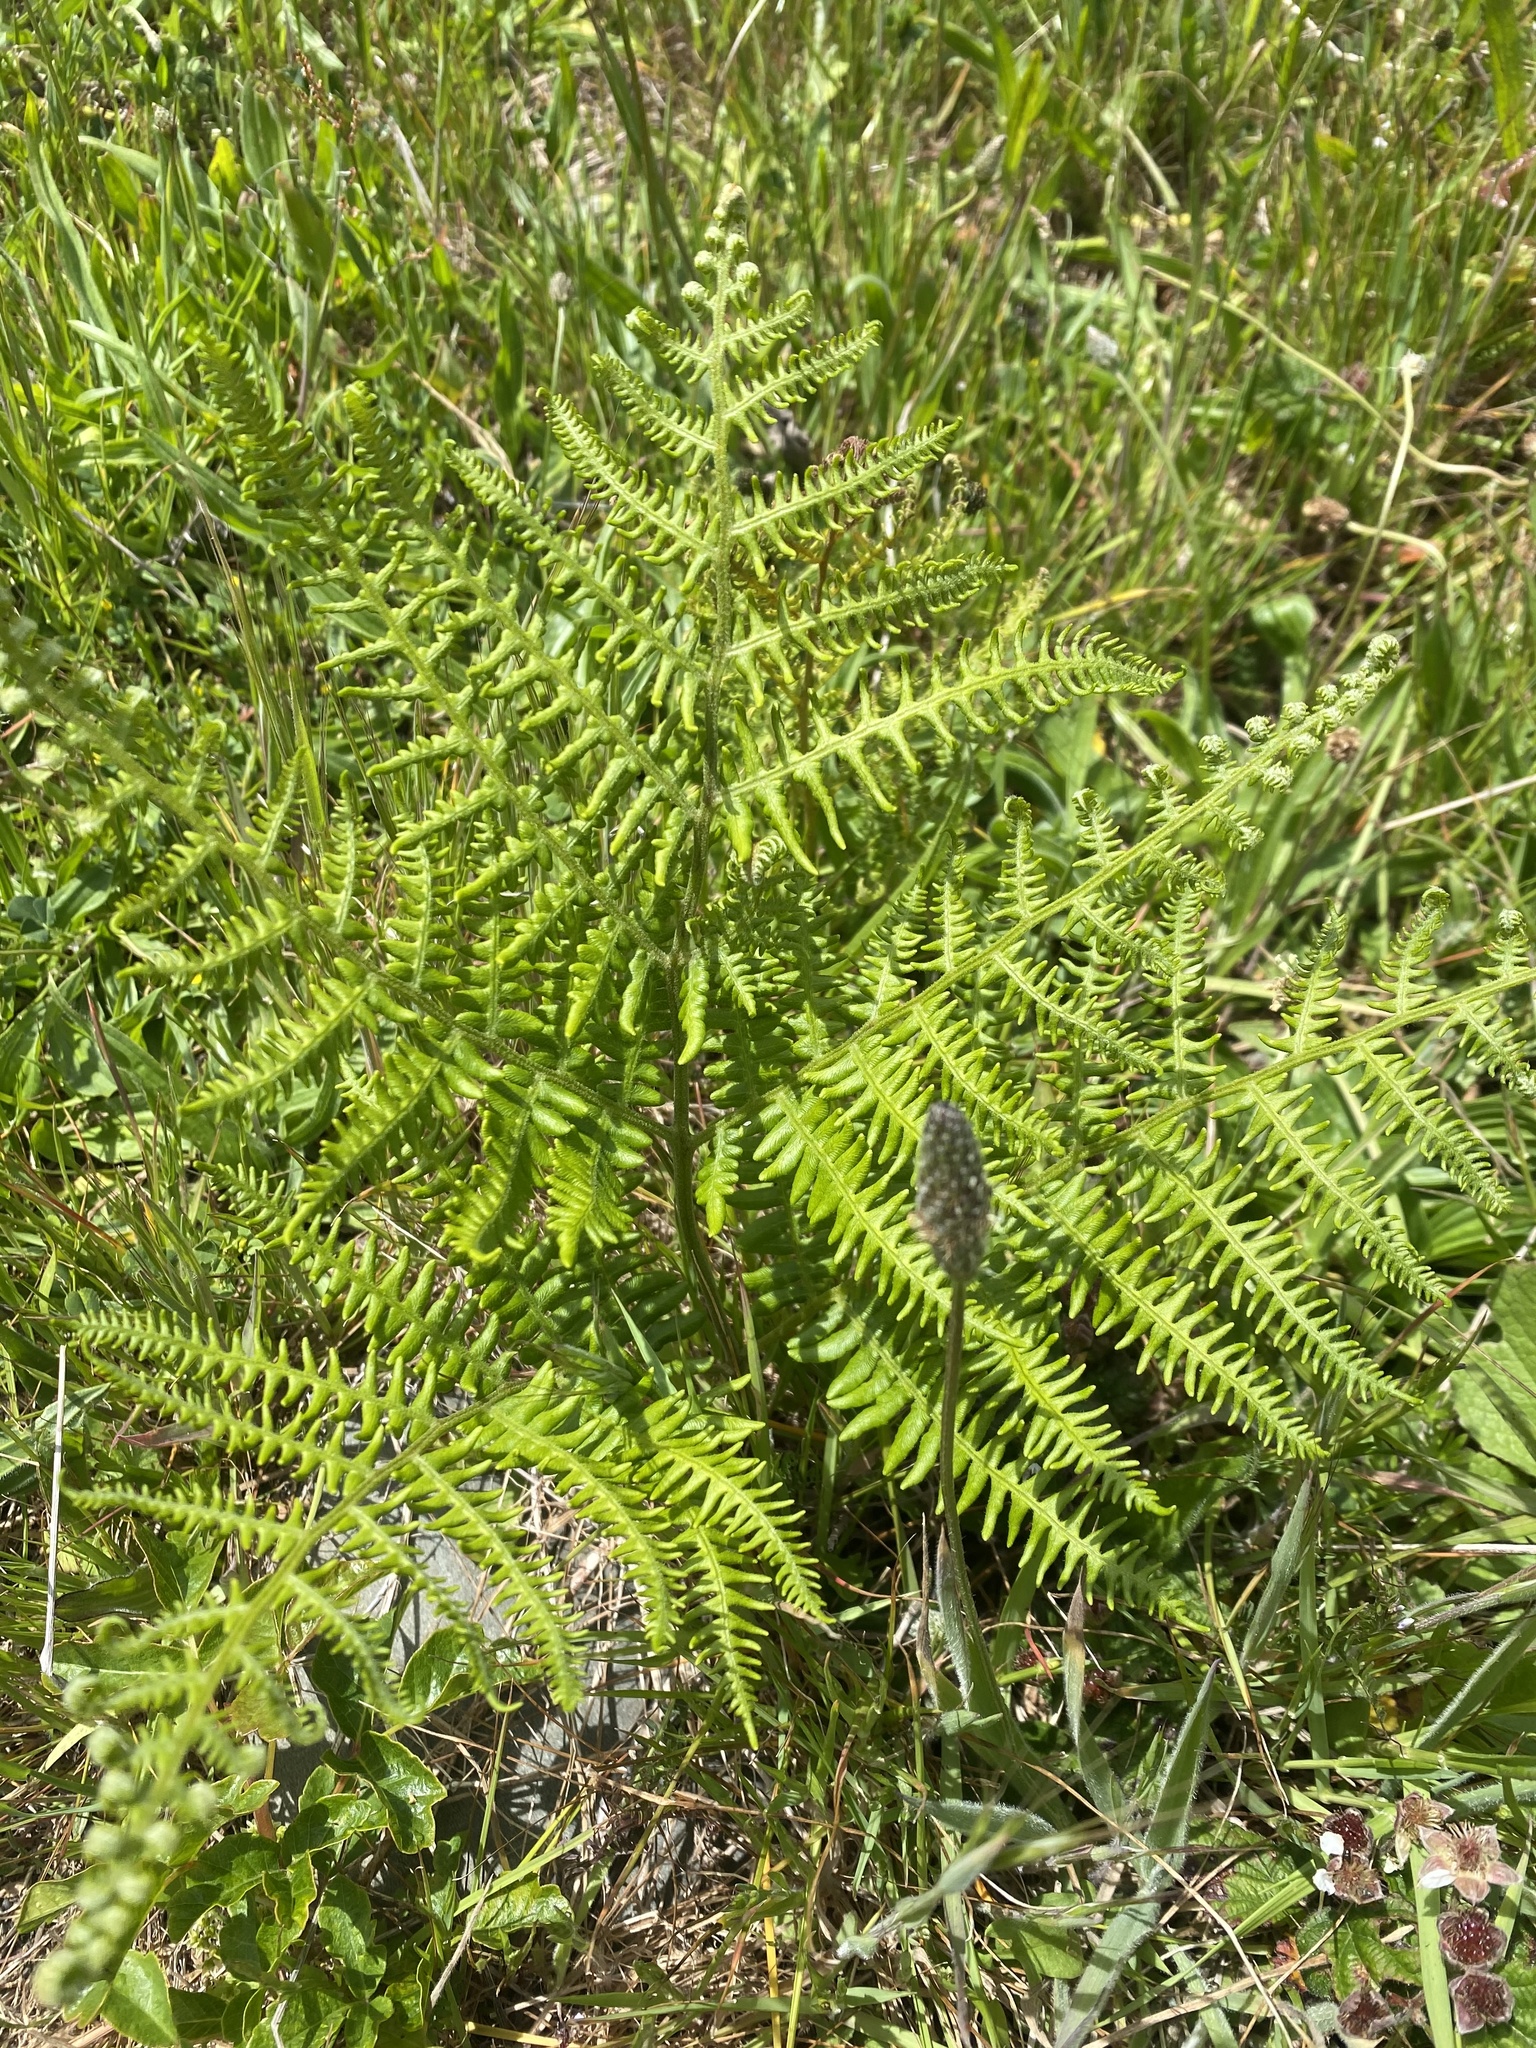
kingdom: Plantae
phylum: Tracheophyta
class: Polypodiopsida
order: Polypodiales
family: Dennstaedtiaceae
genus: Pteridium
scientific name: Pteridium aquilinum
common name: Bracken
